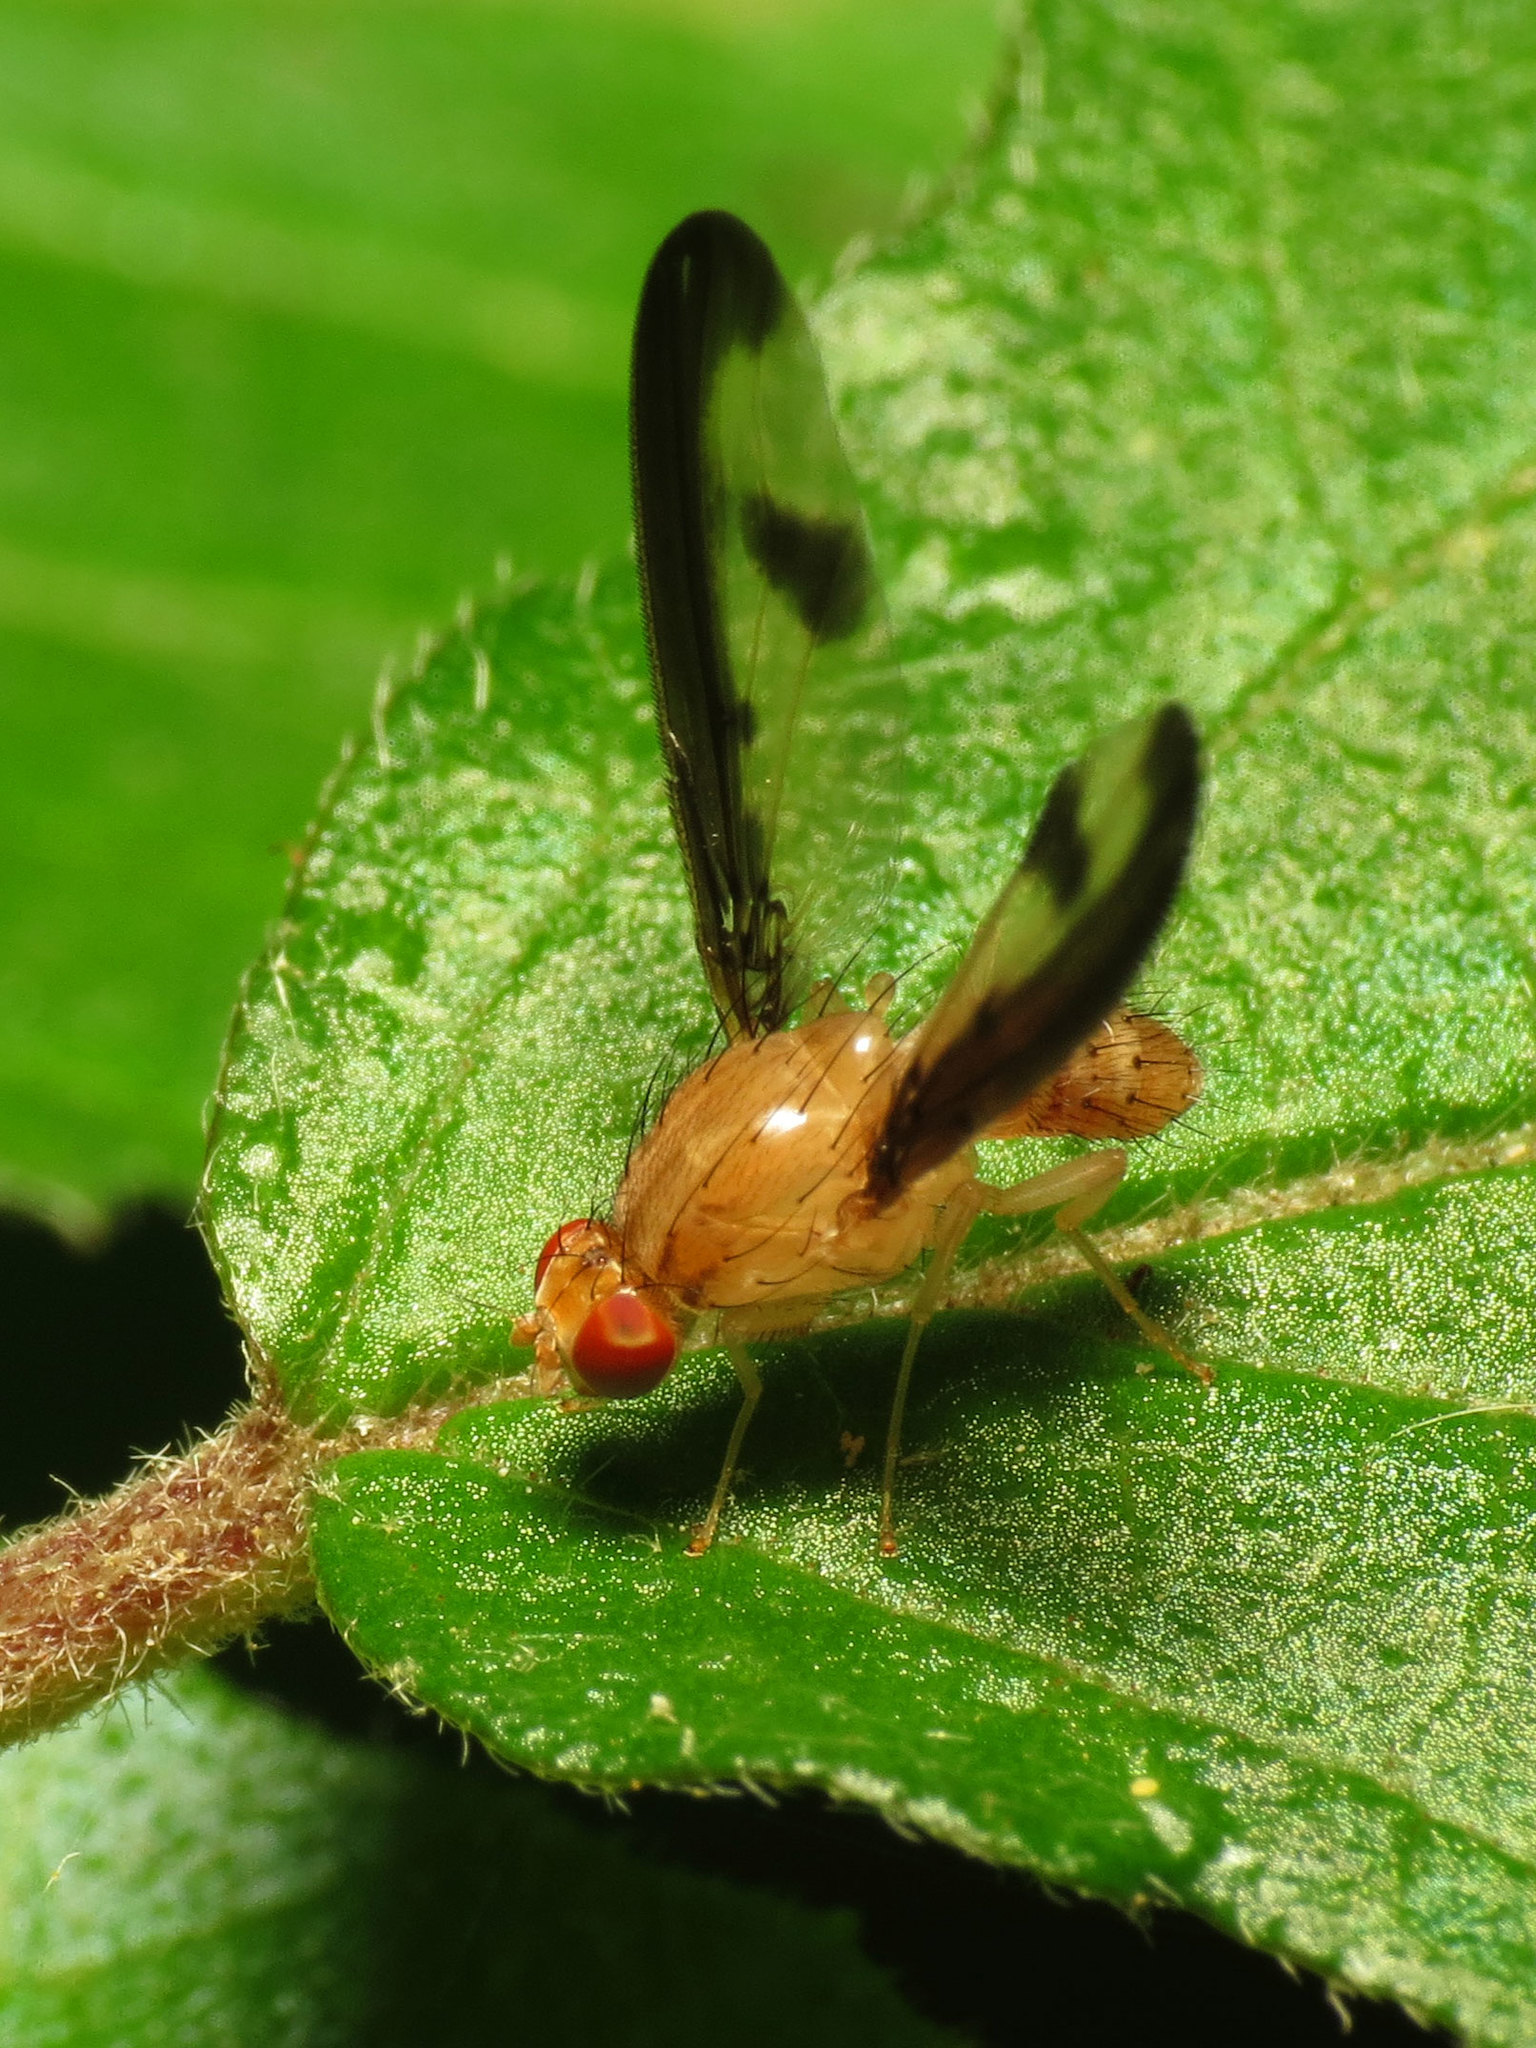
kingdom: Animalia
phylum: Arthropoda
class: Insecta
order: Diptera
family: Pallopteridae
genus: Toxonevra
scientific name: Toxonevra superba
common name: Antlered flutter fly
